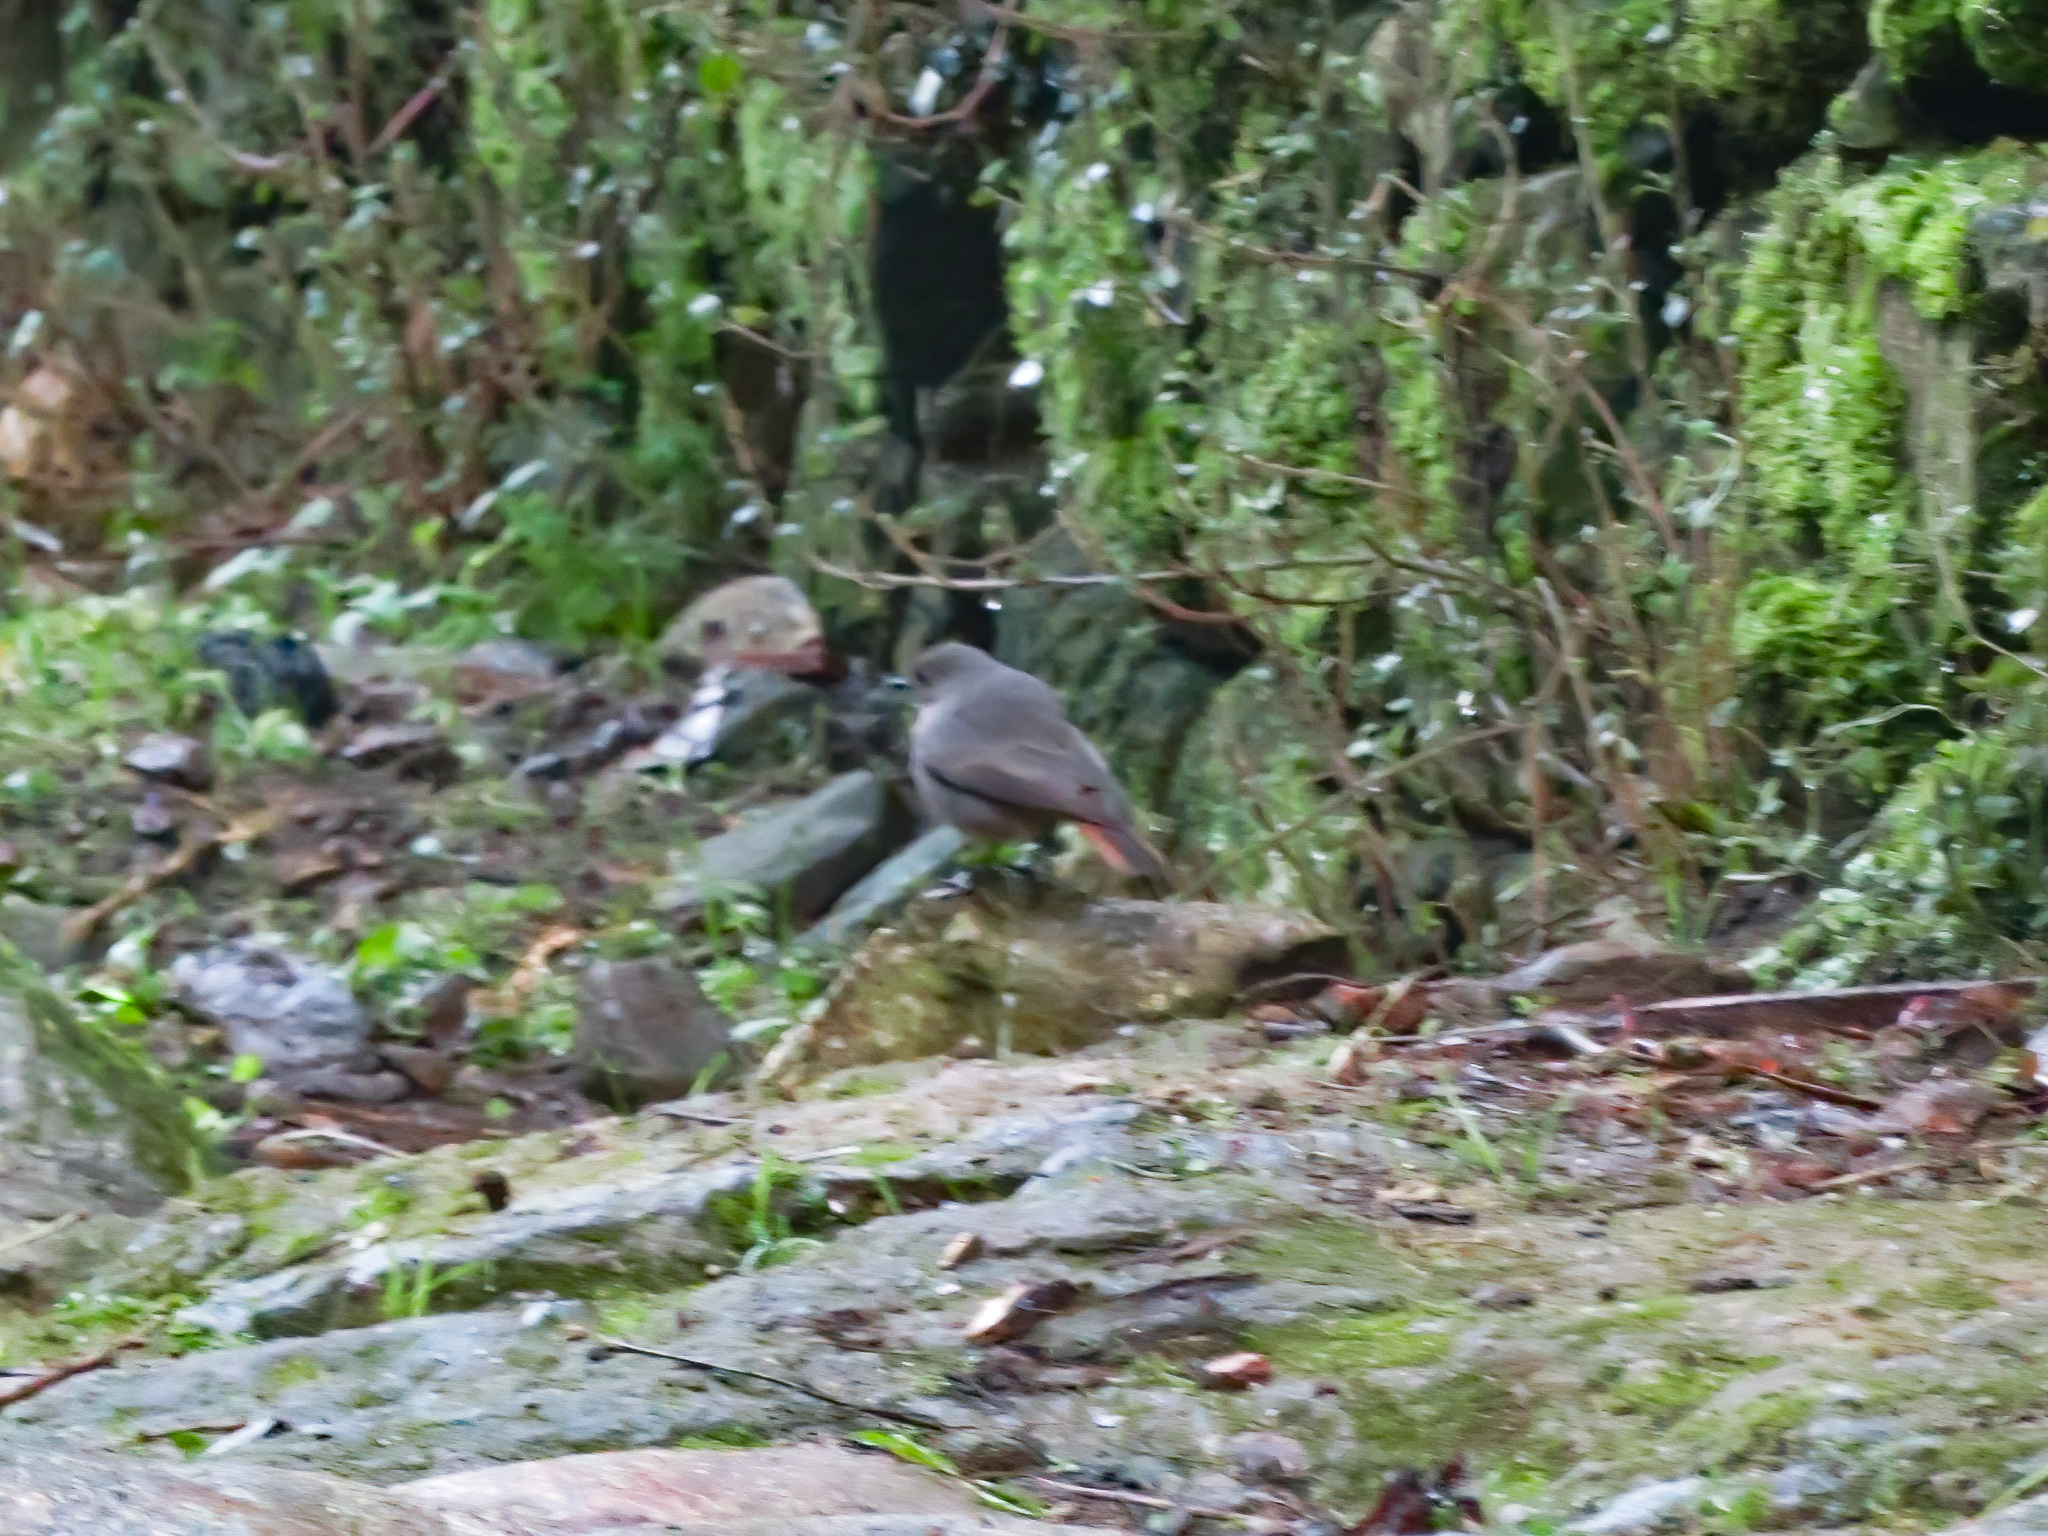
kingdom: Animalia
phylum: Chordata
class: Aves
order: Passeriformes
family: Muscicapidae
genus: Phoenicurus
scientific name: Phoenicurus ochruros
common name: Black redstart
